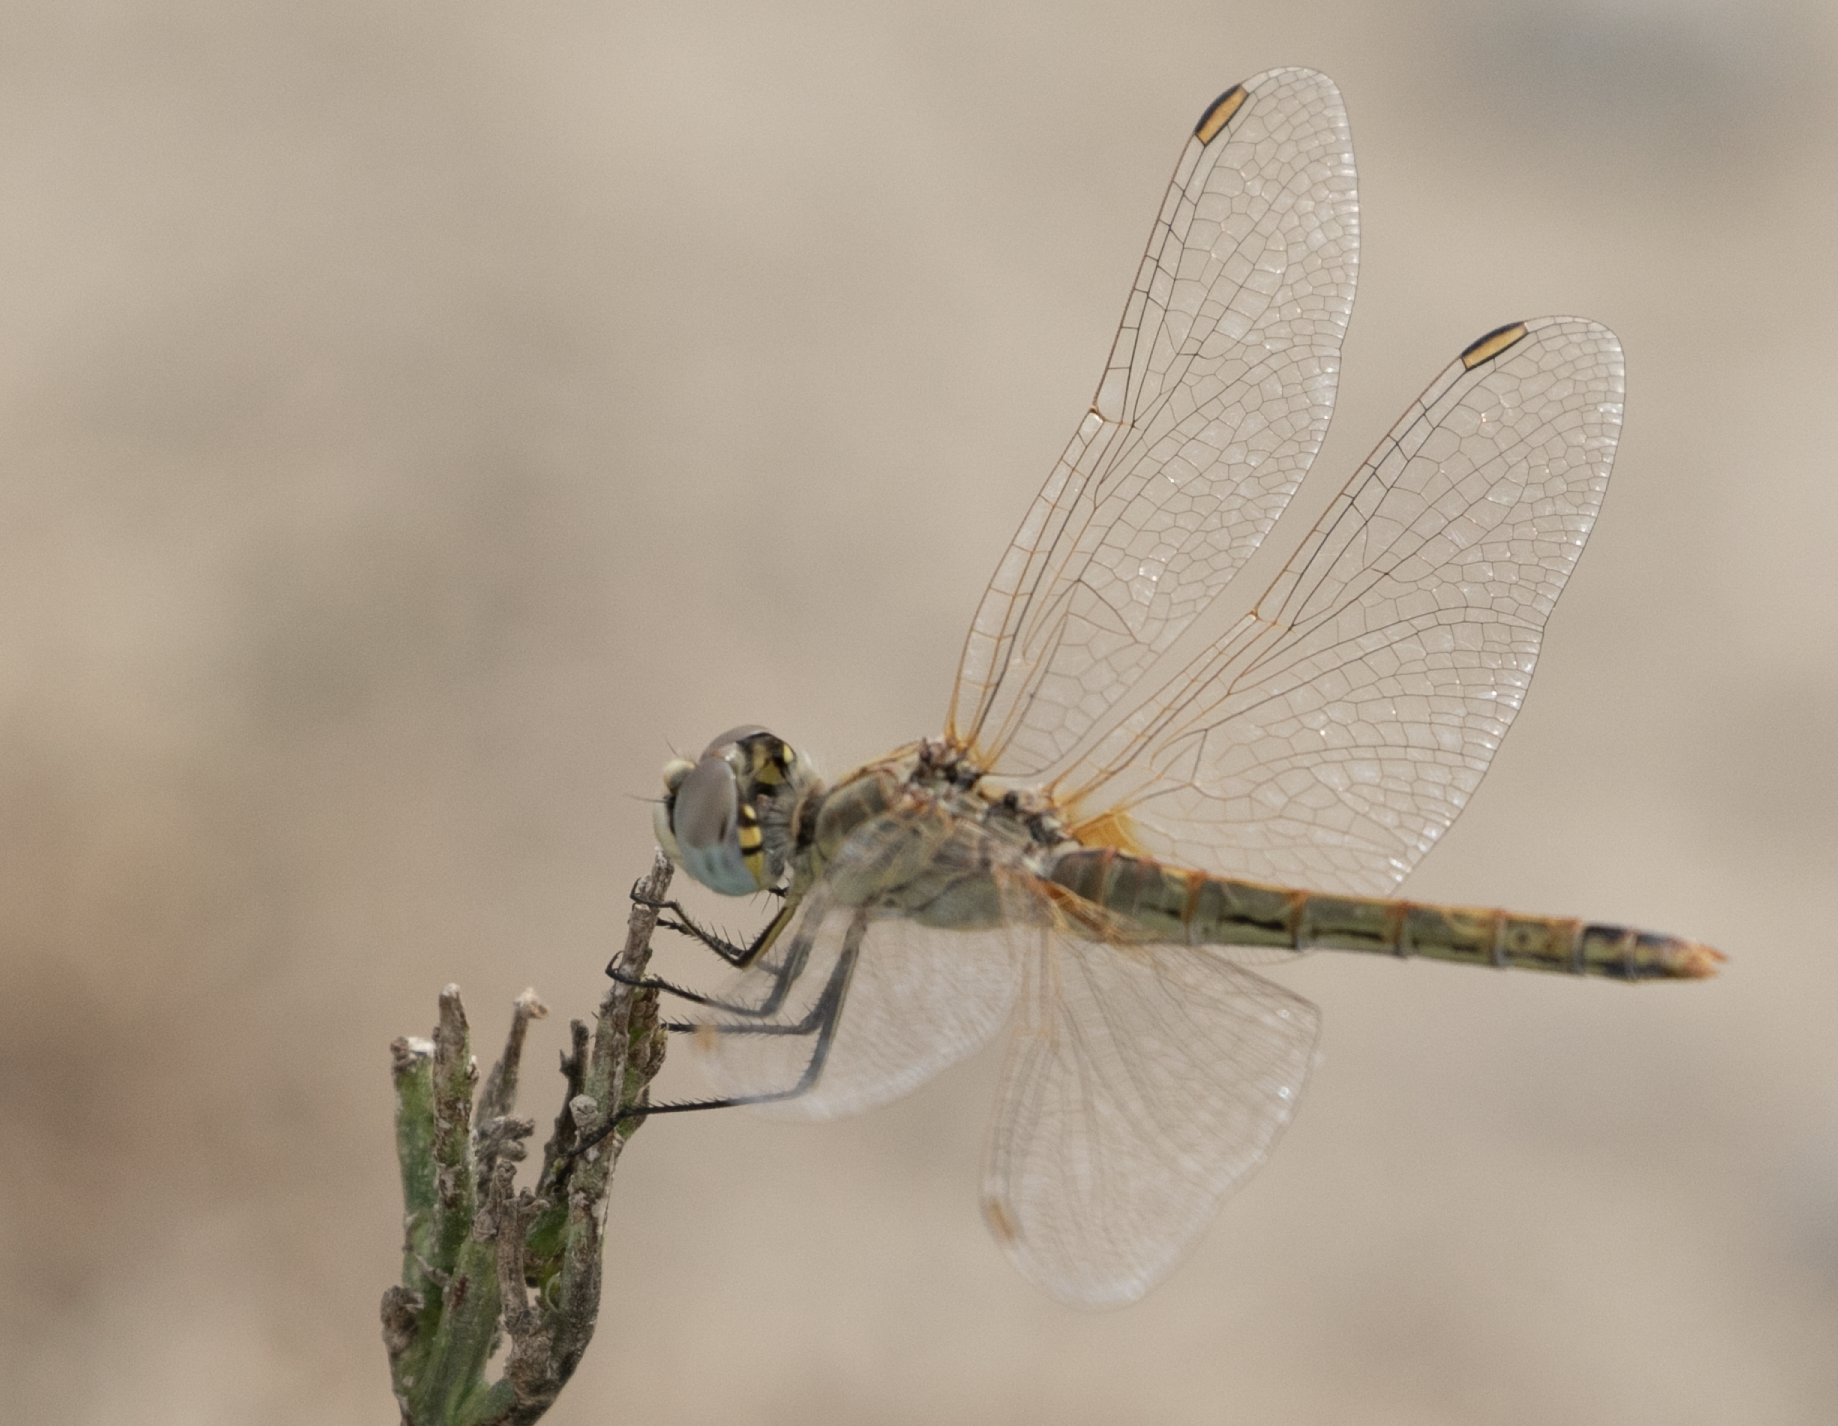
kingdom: Animalia
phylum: Arthropoda
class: Insecta
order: Odonata
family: Libellulidae
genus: Sympetrum
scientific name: Sympetrum fonscolombii
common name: Red-veined darter
